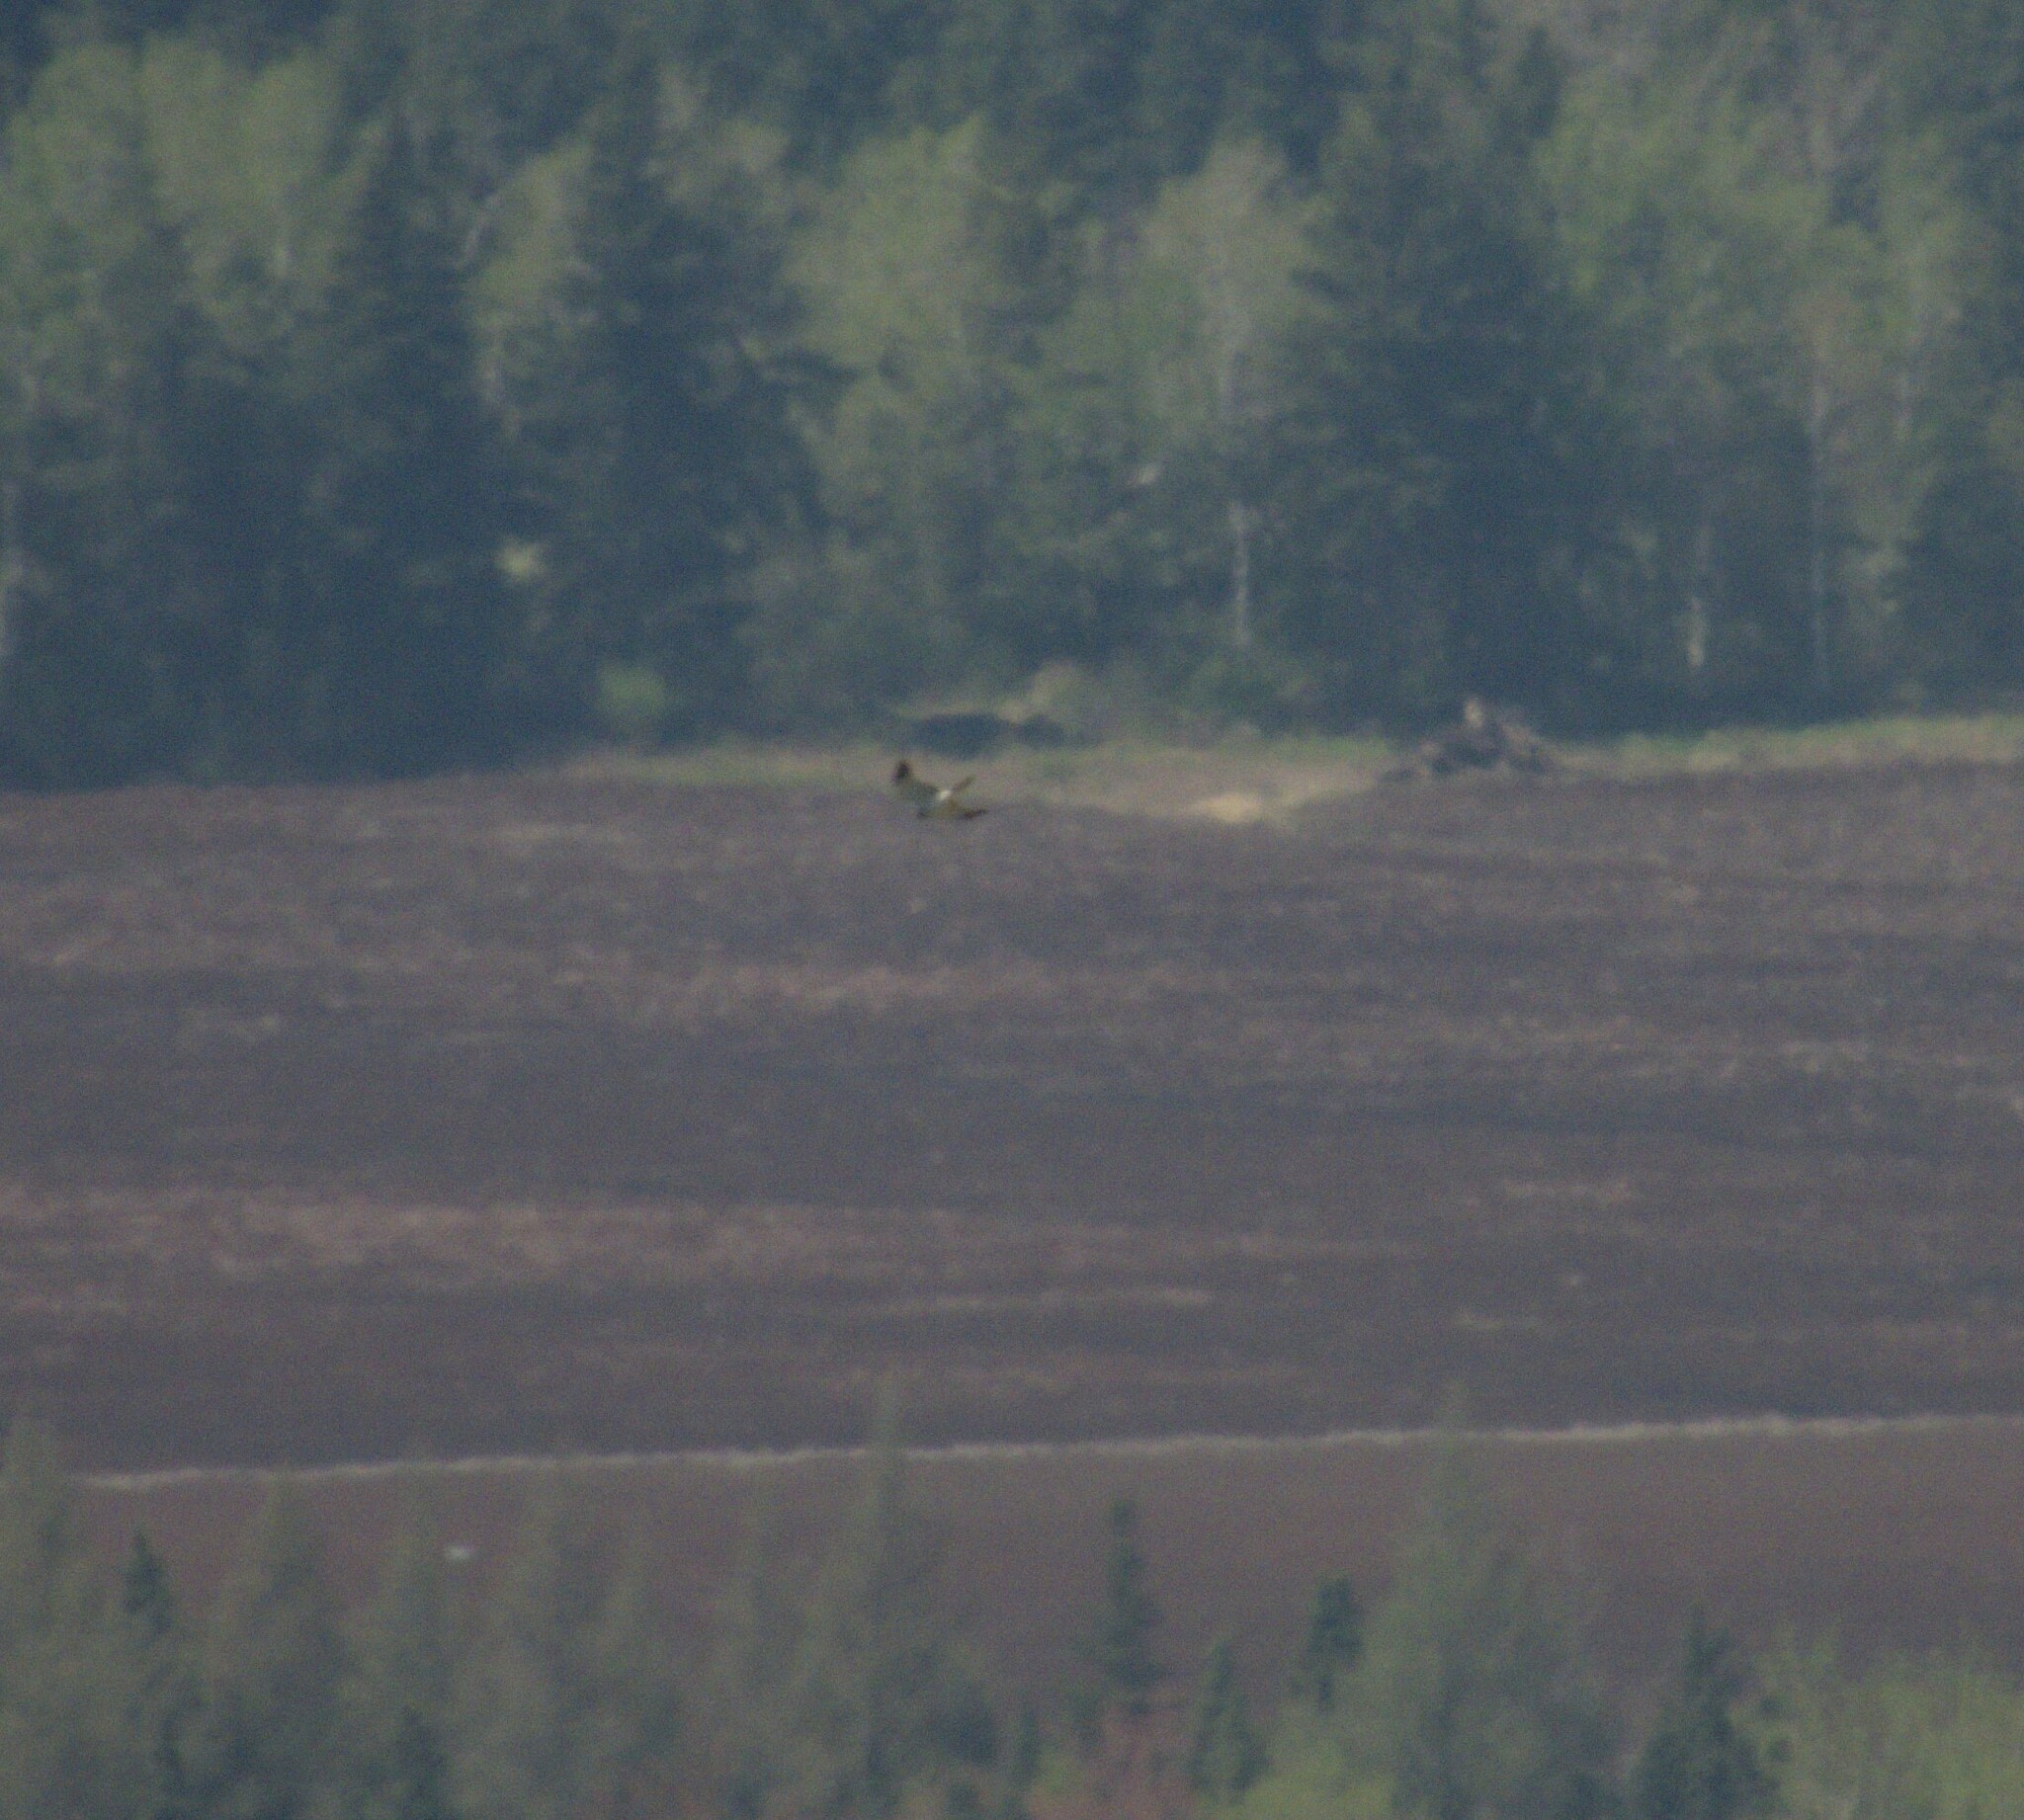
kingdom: Animalia
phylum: Chordata
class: Aves
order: Accipitriformes
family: Accipitridae
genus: Circus
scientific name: Circus cyaneus
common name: Hen harrier
